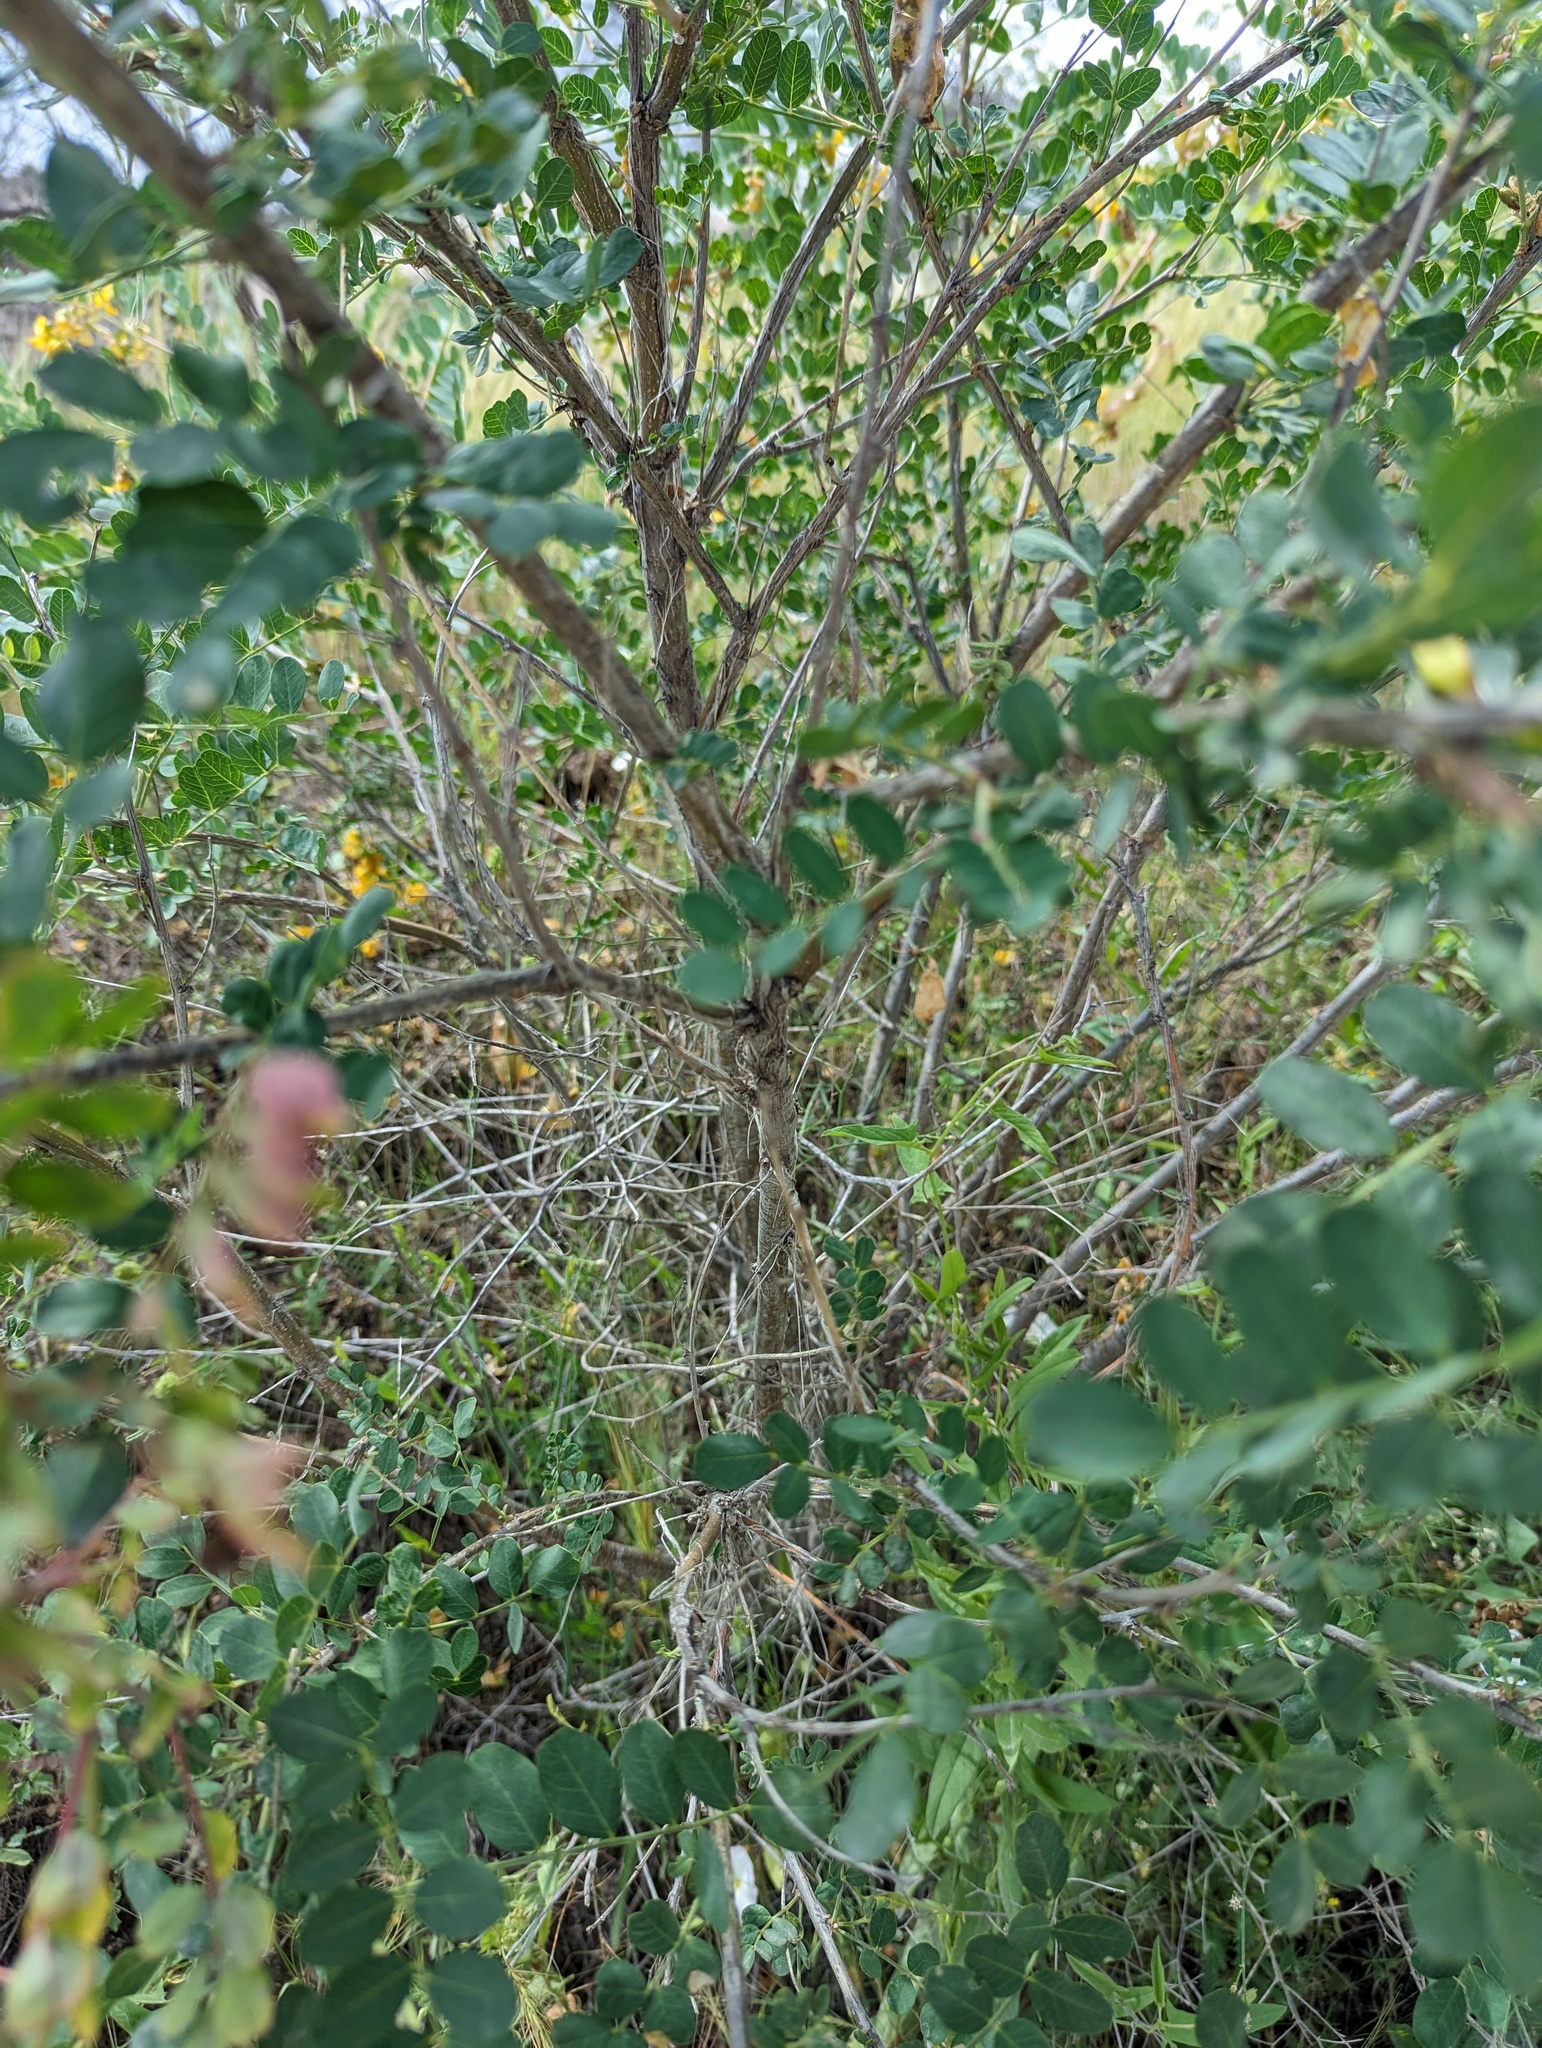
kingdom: Plantae
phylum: Tracheophyta
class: Magnoliopsida
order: Fabales
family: Fabaceae
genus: Colutea
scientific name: Colutea cilicica
